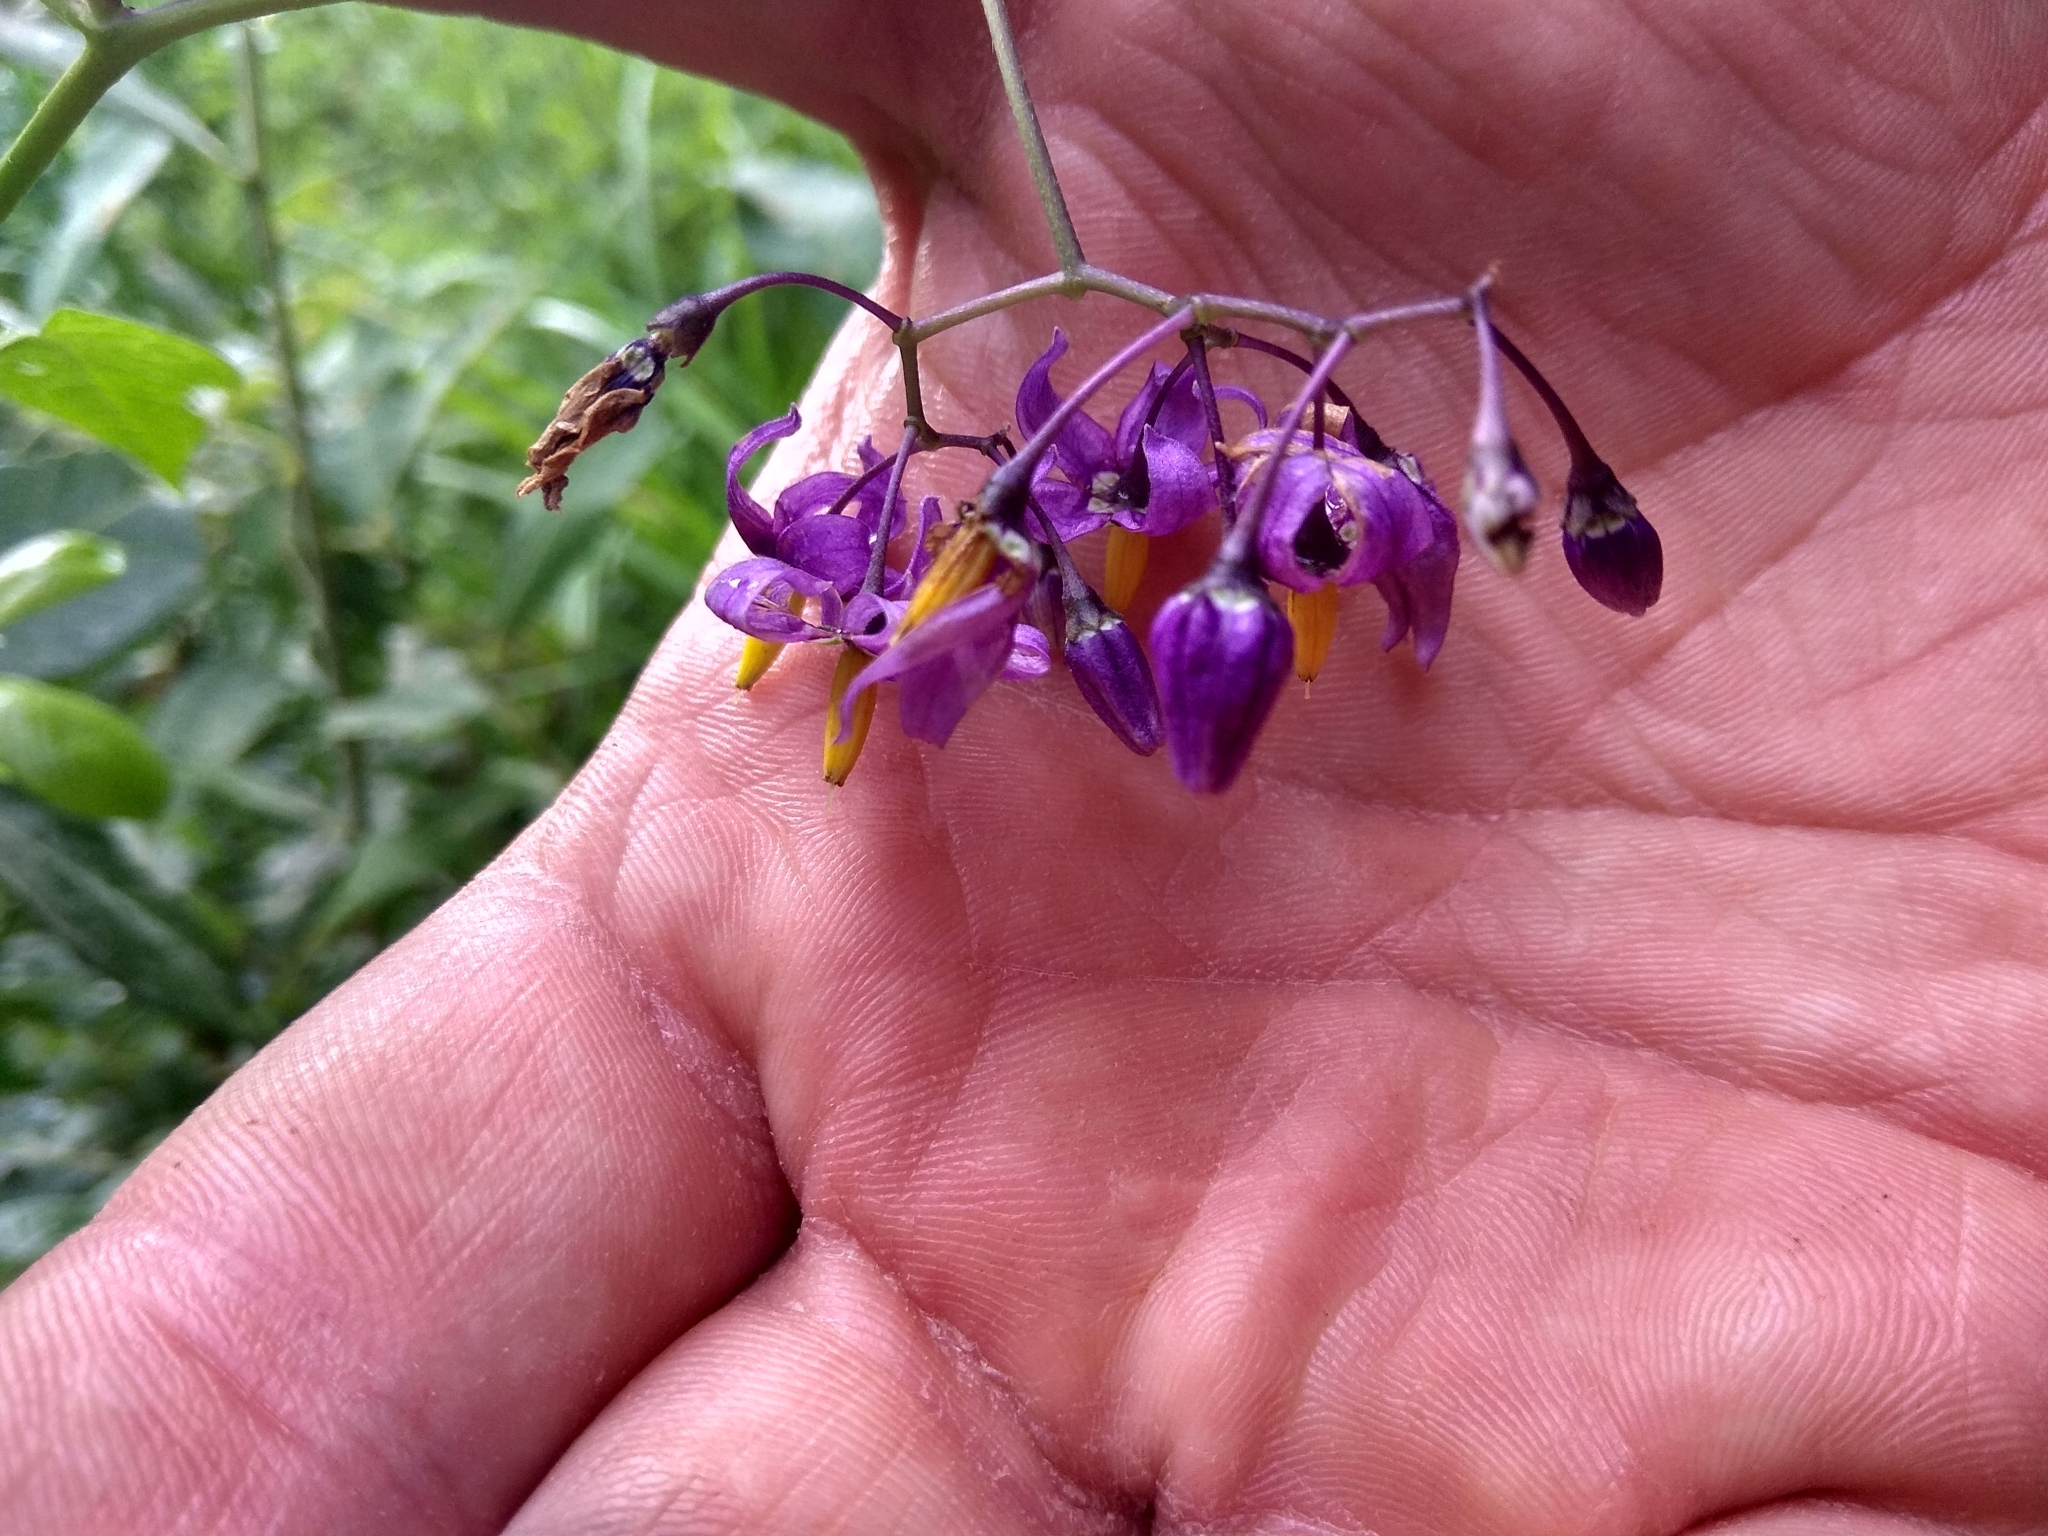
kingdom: Plantae
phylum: Tracheophyta
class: Magnoliopsida
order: Solanales
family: Solanaceae
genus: Solanum
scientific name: Solanum dulcamara
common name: Climbing nightshade
